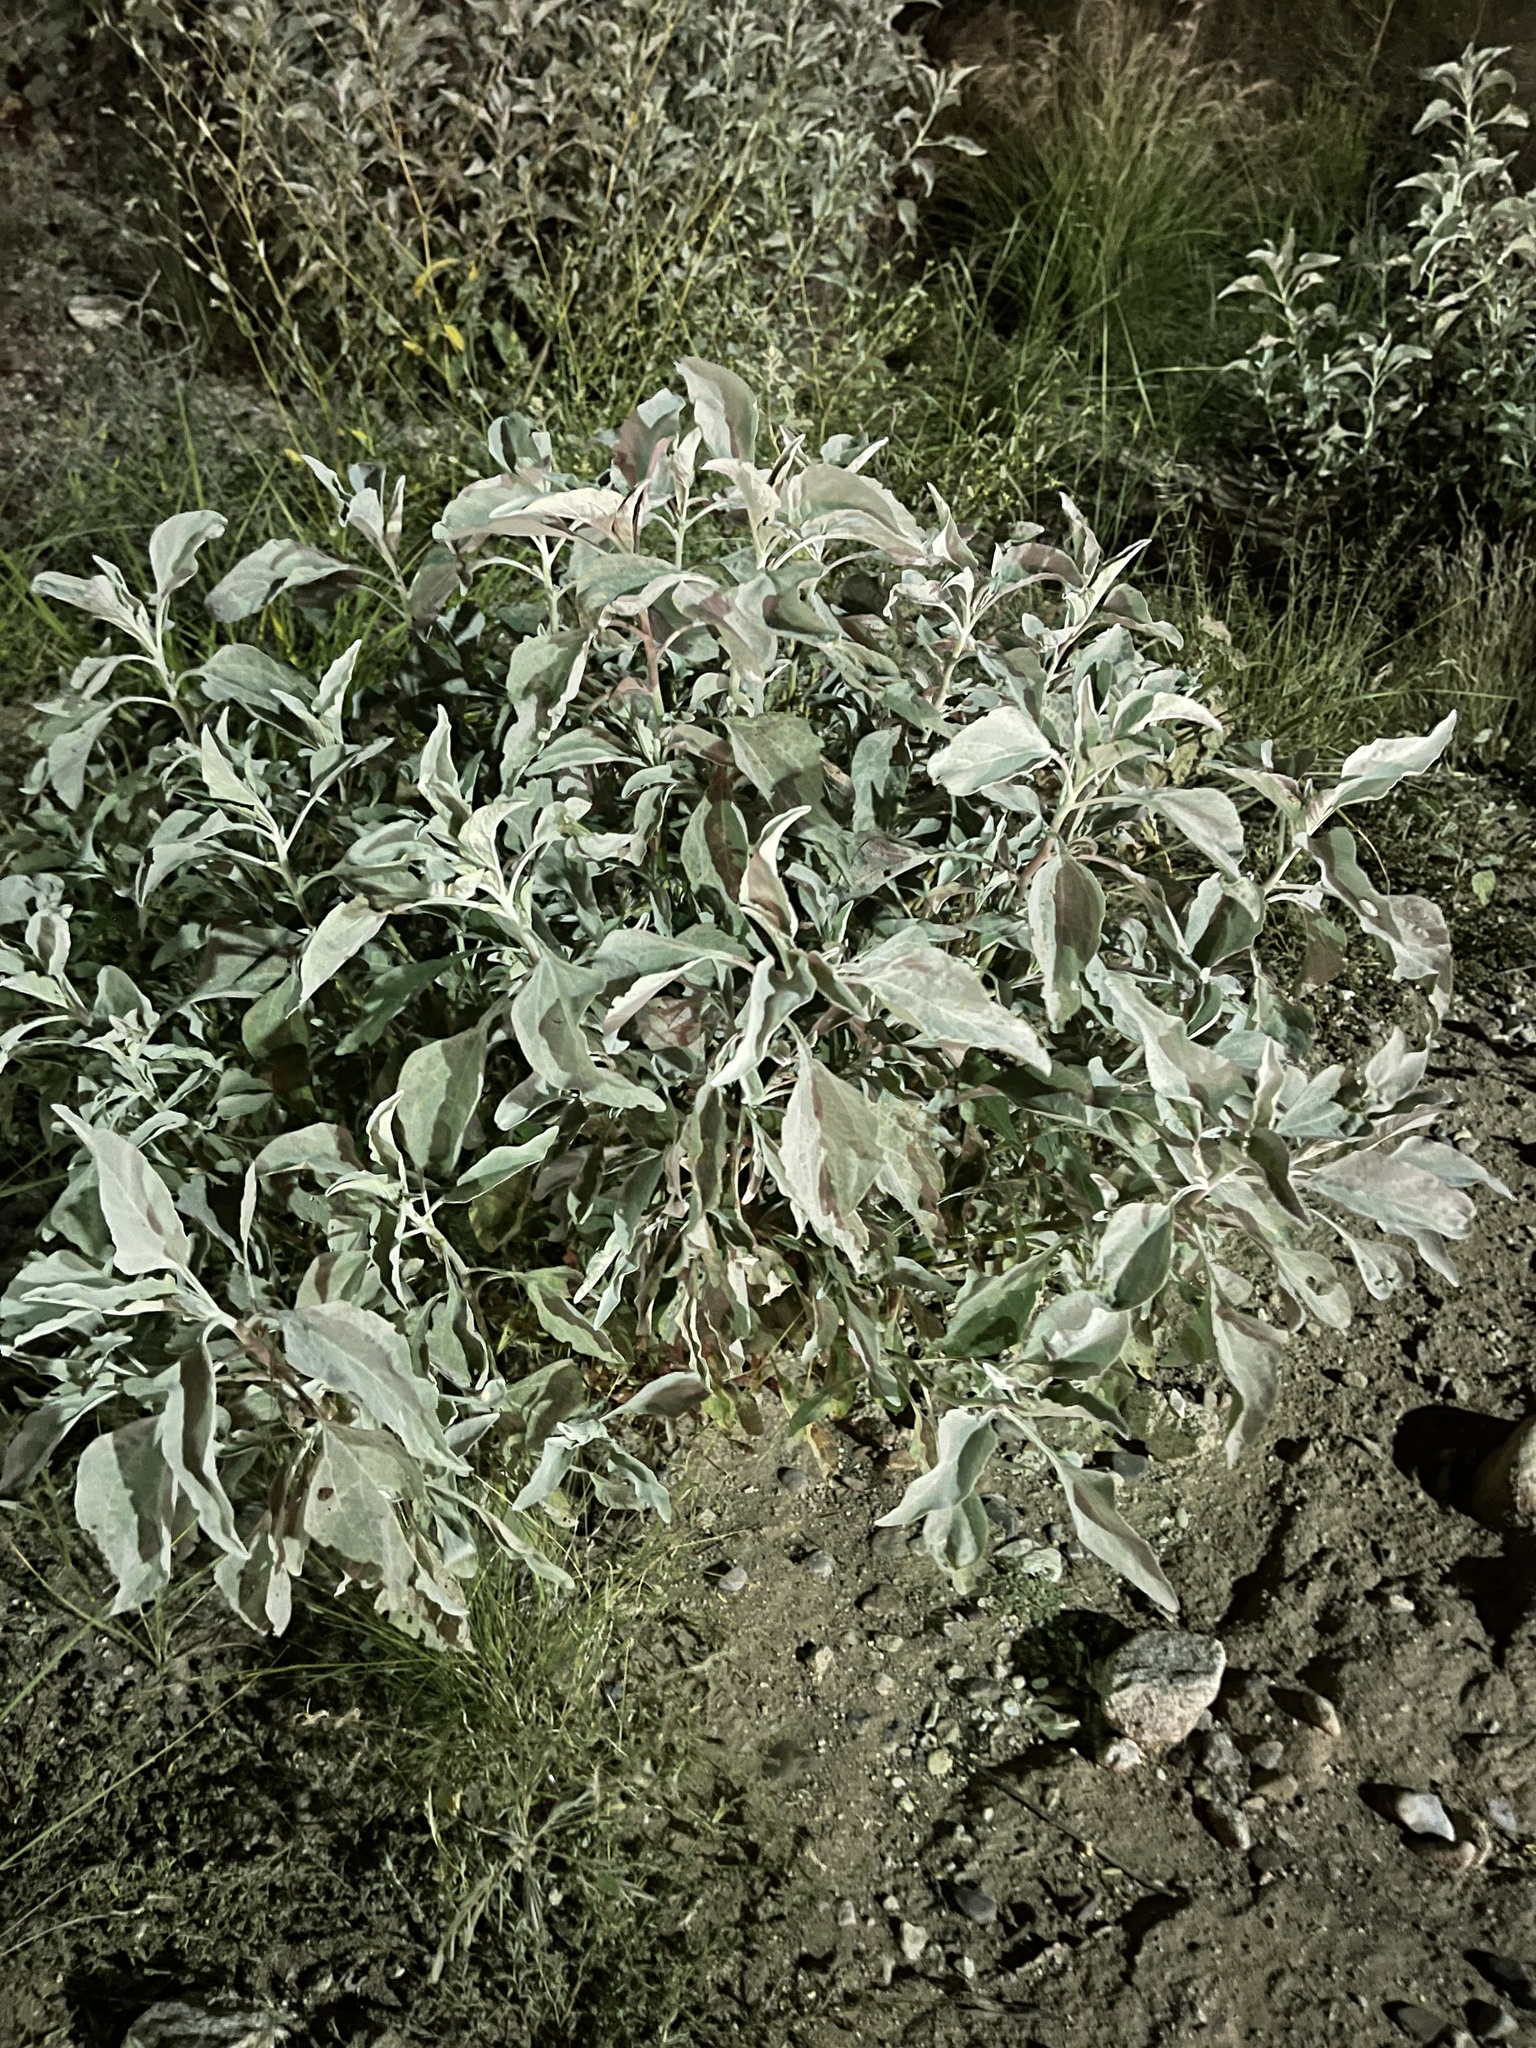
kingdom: Plantae
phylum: Tracheophyta
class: Magnoliopsida
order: Asterales
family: Asteraceae
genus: Encelia
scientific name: Encelia farinosa
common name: Brittlebush
